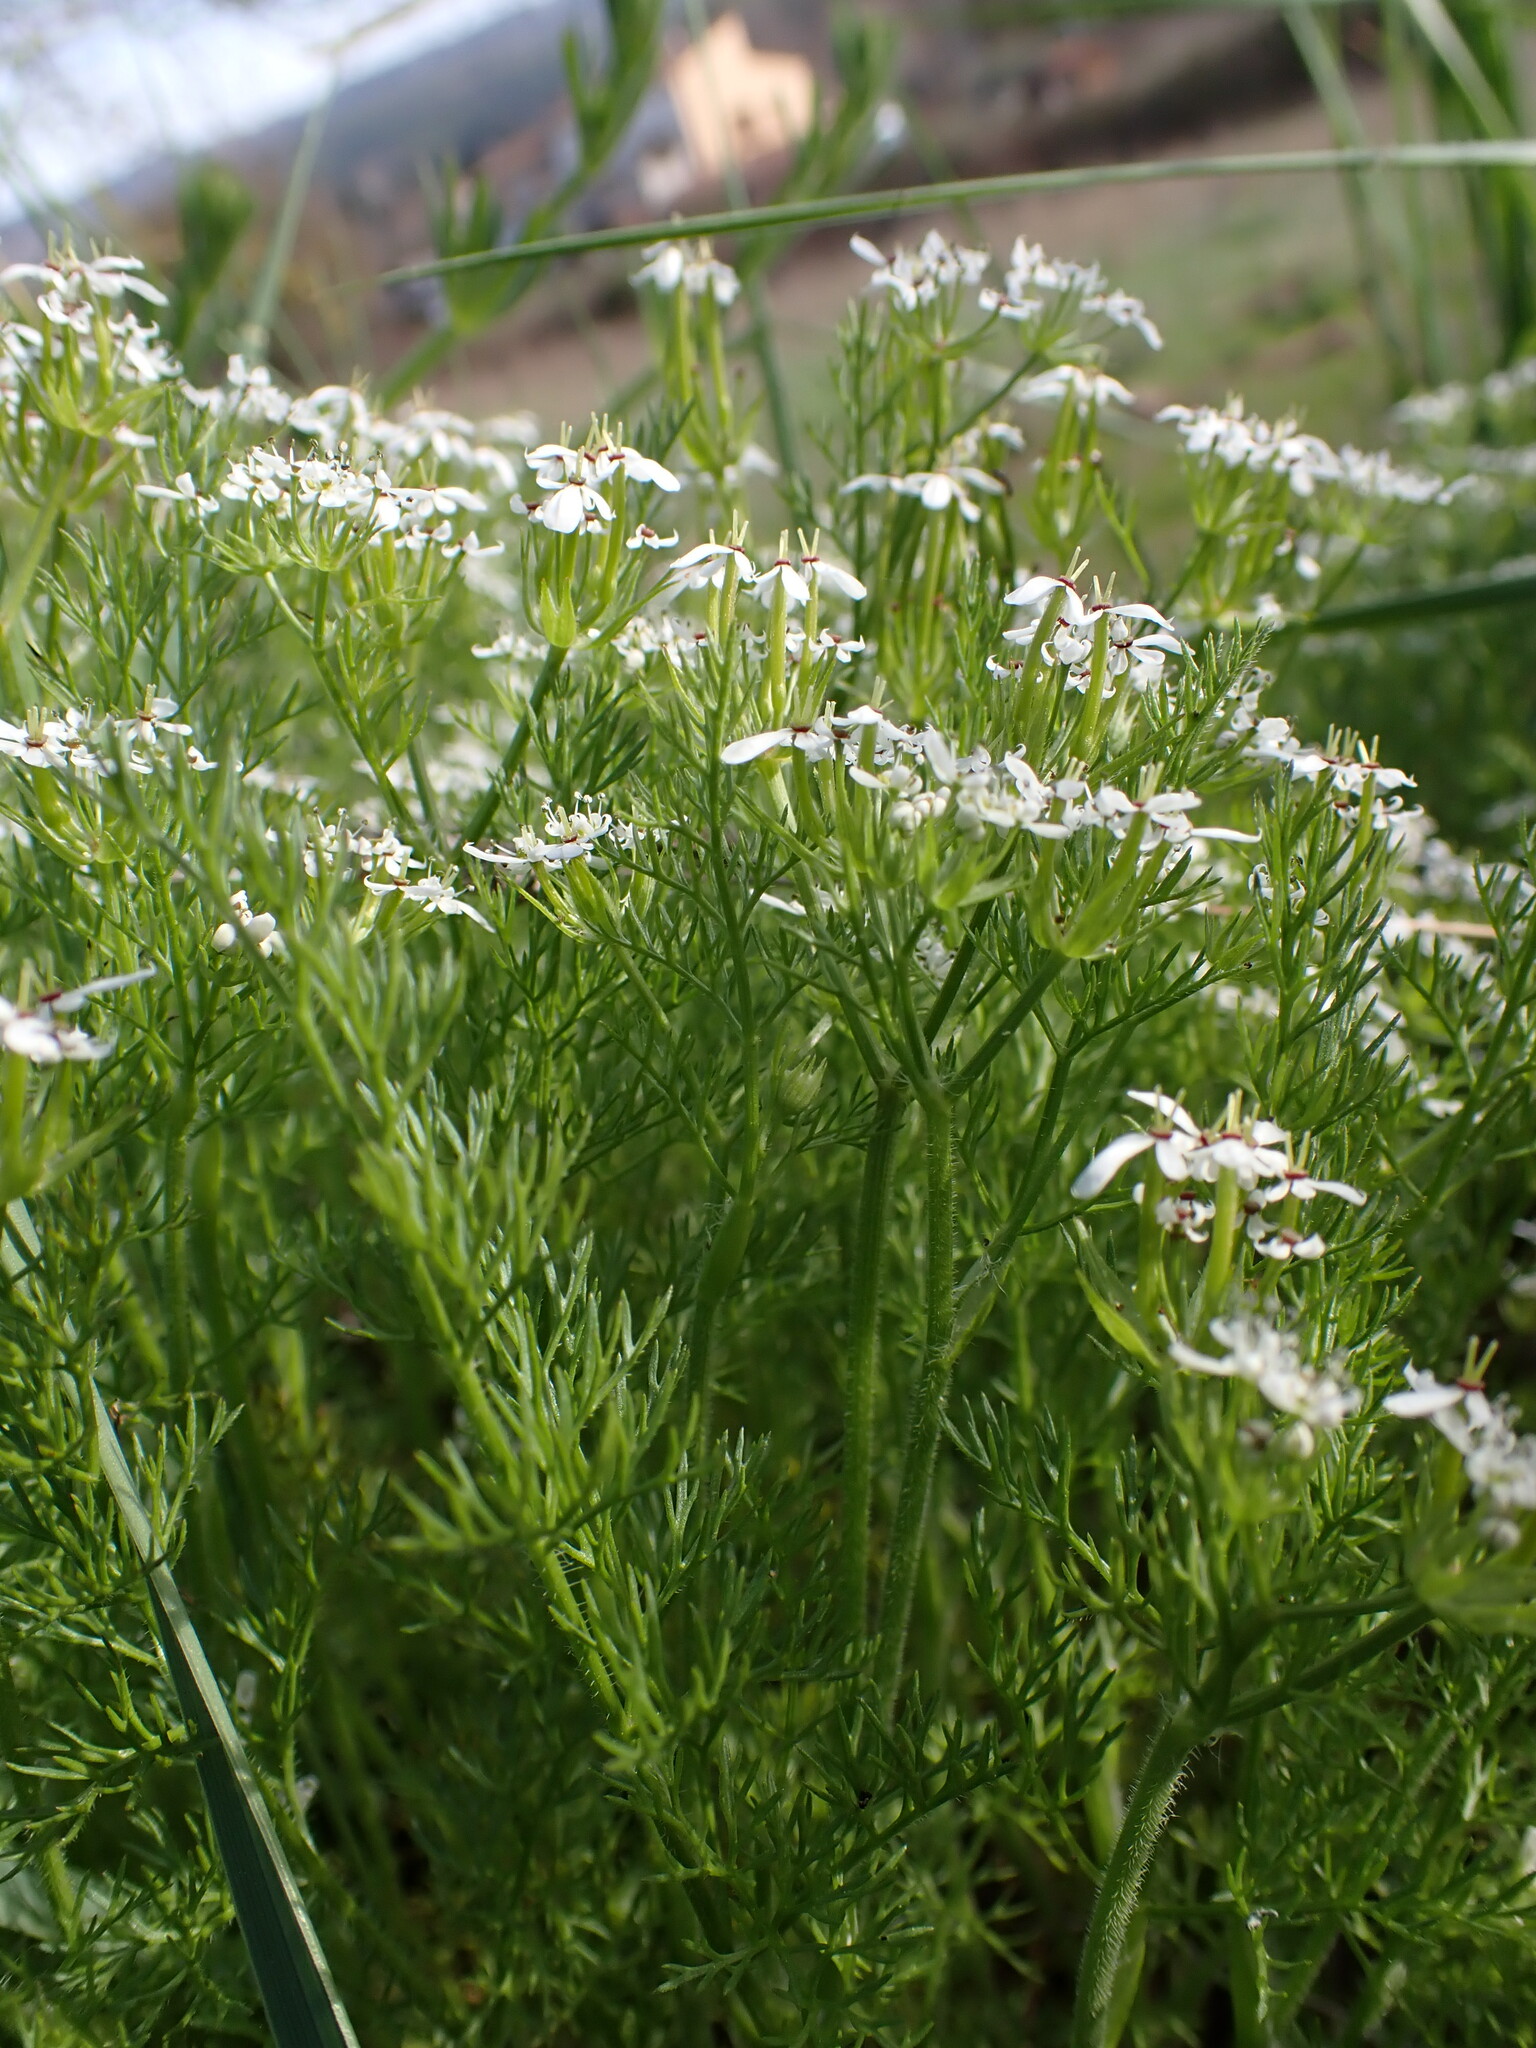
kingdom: Plantae
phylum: Tracheophyta
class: Magnoliopsida
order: Apiales
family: Apiaceae
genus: Scandix
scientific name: Scandix pecten-veneris
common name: Shepherd's-needle
